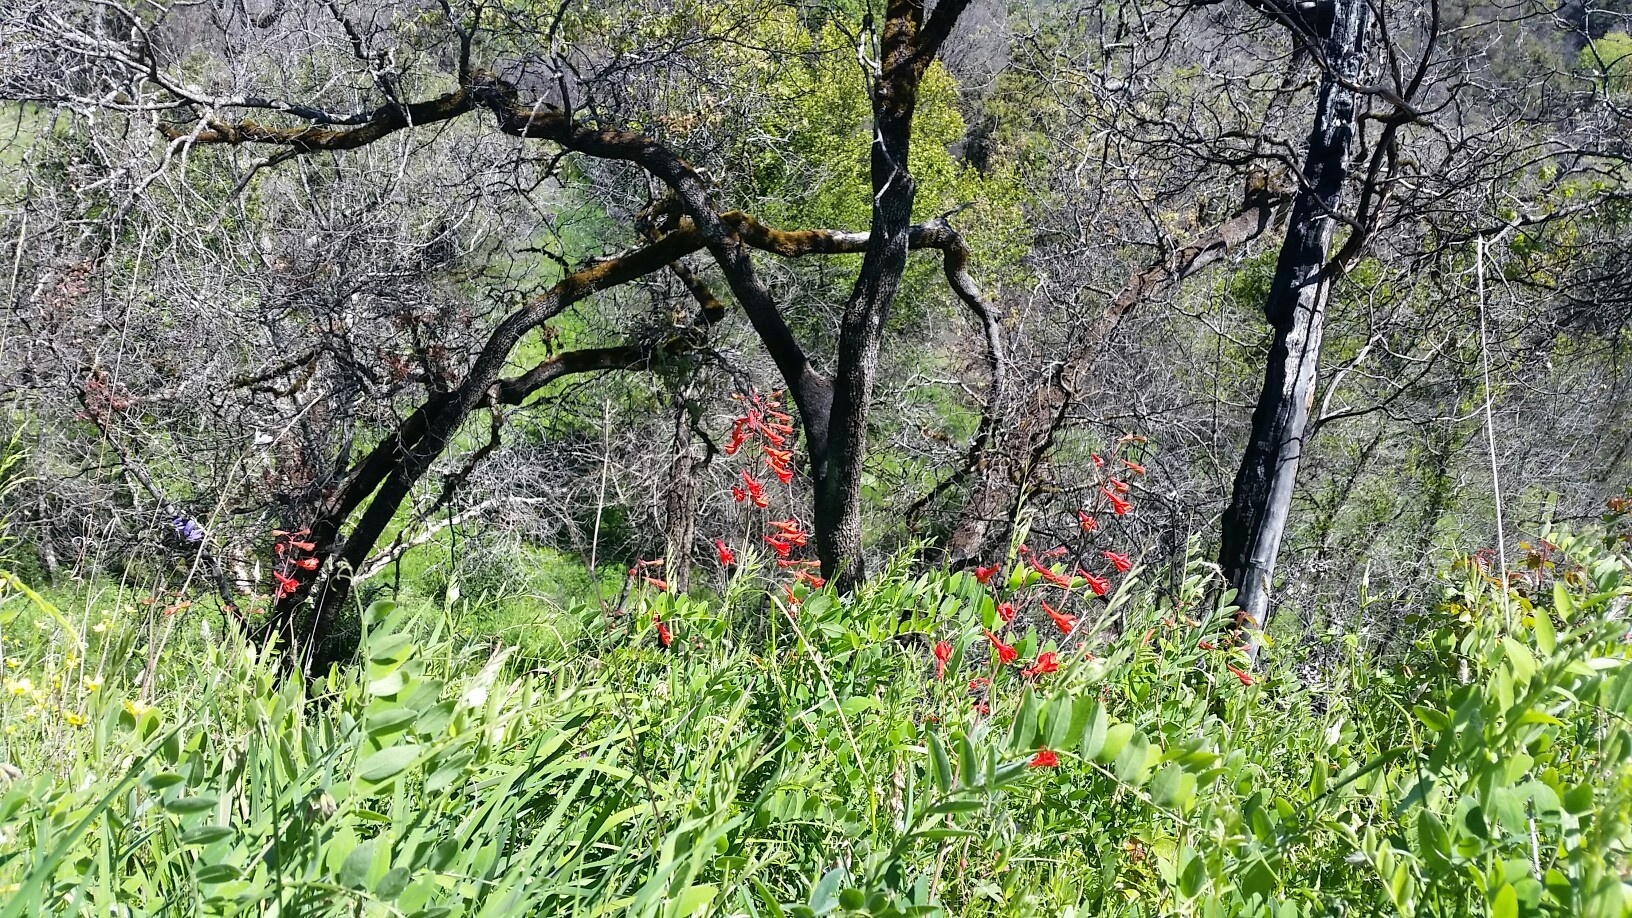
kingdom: Plantae
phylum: Tracheophyta
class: Magnoliopsida
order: Ranunculales
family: Ranunculaceae
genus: Delphinium
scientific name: Delphinium nudicaule
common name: Red larkspur
